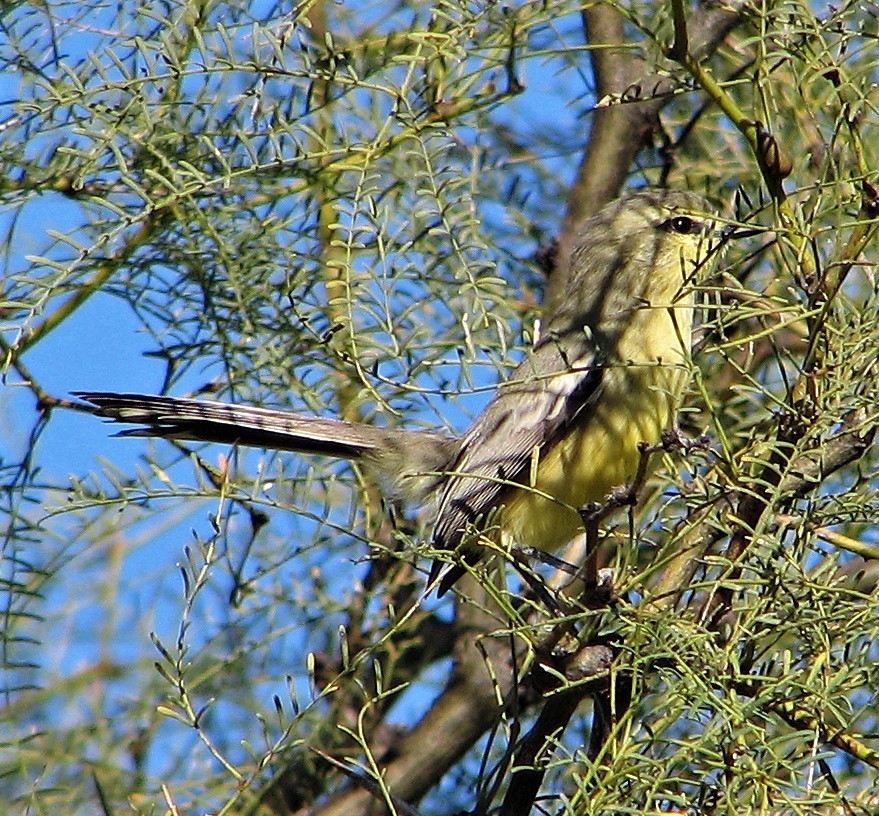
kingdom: Animalia
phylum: Chordata
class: Aves
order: Passeriformes
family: Tyrannidae
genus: Stigmatura
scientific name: Stigmatura budytoides
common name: Greater wagtail-tyrant
